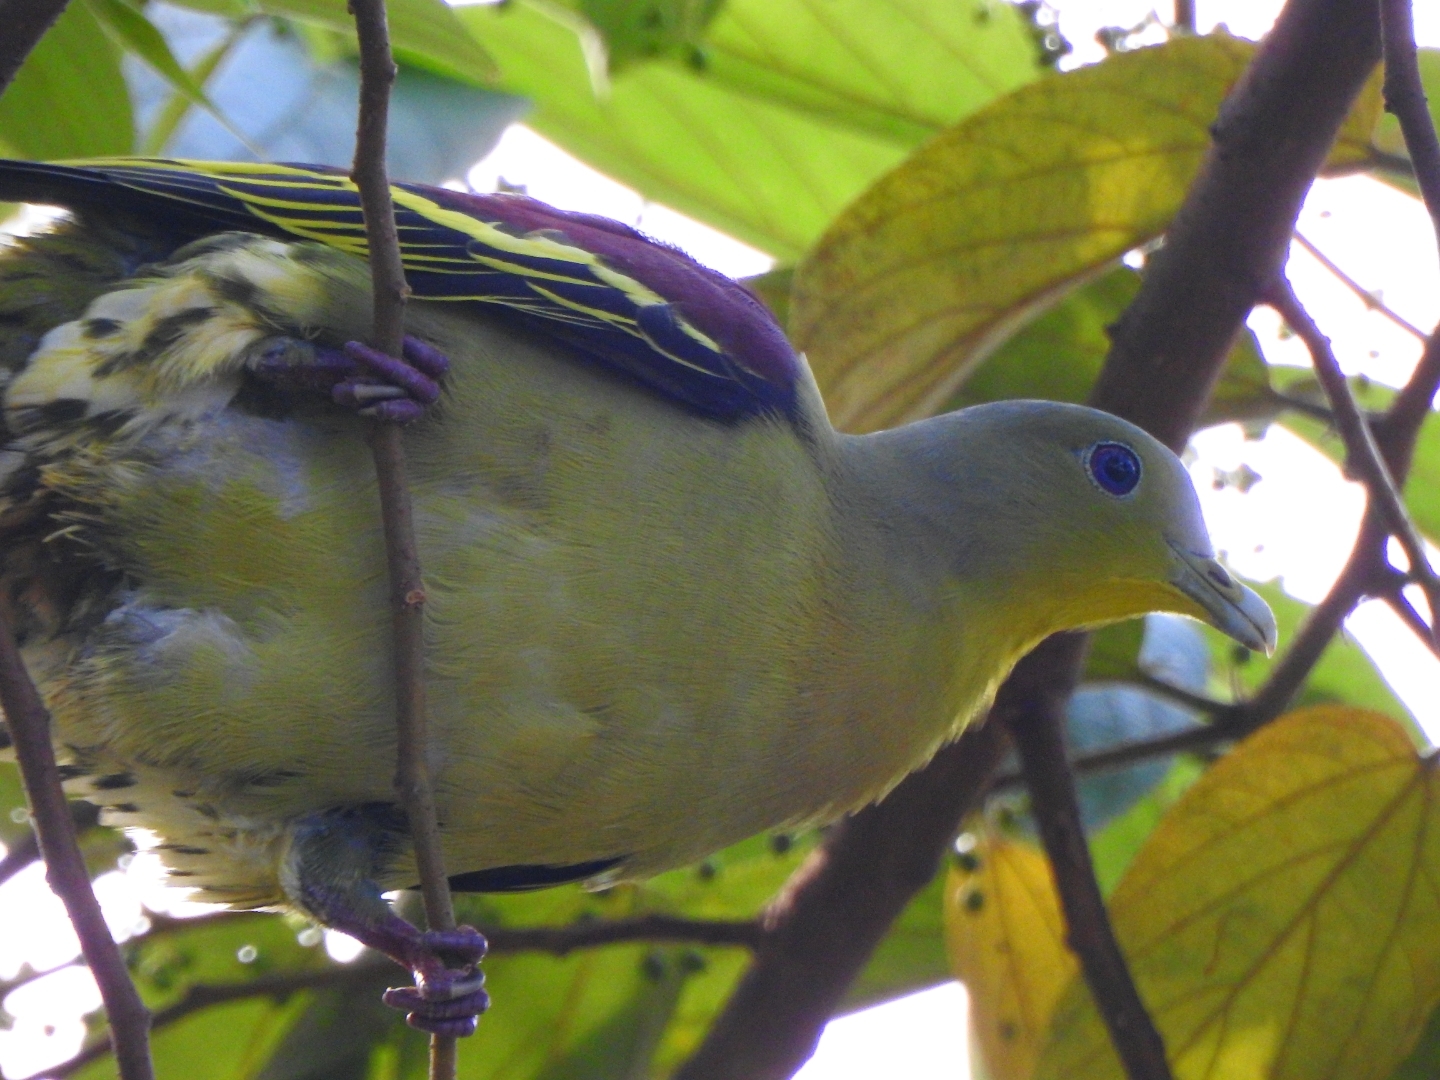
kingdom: Animalia
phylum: Chordata
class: Aves
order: Columbiformes
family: Columbidae
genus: Treron
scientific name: Treron affinis
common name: Grey-fronted green pigeon
